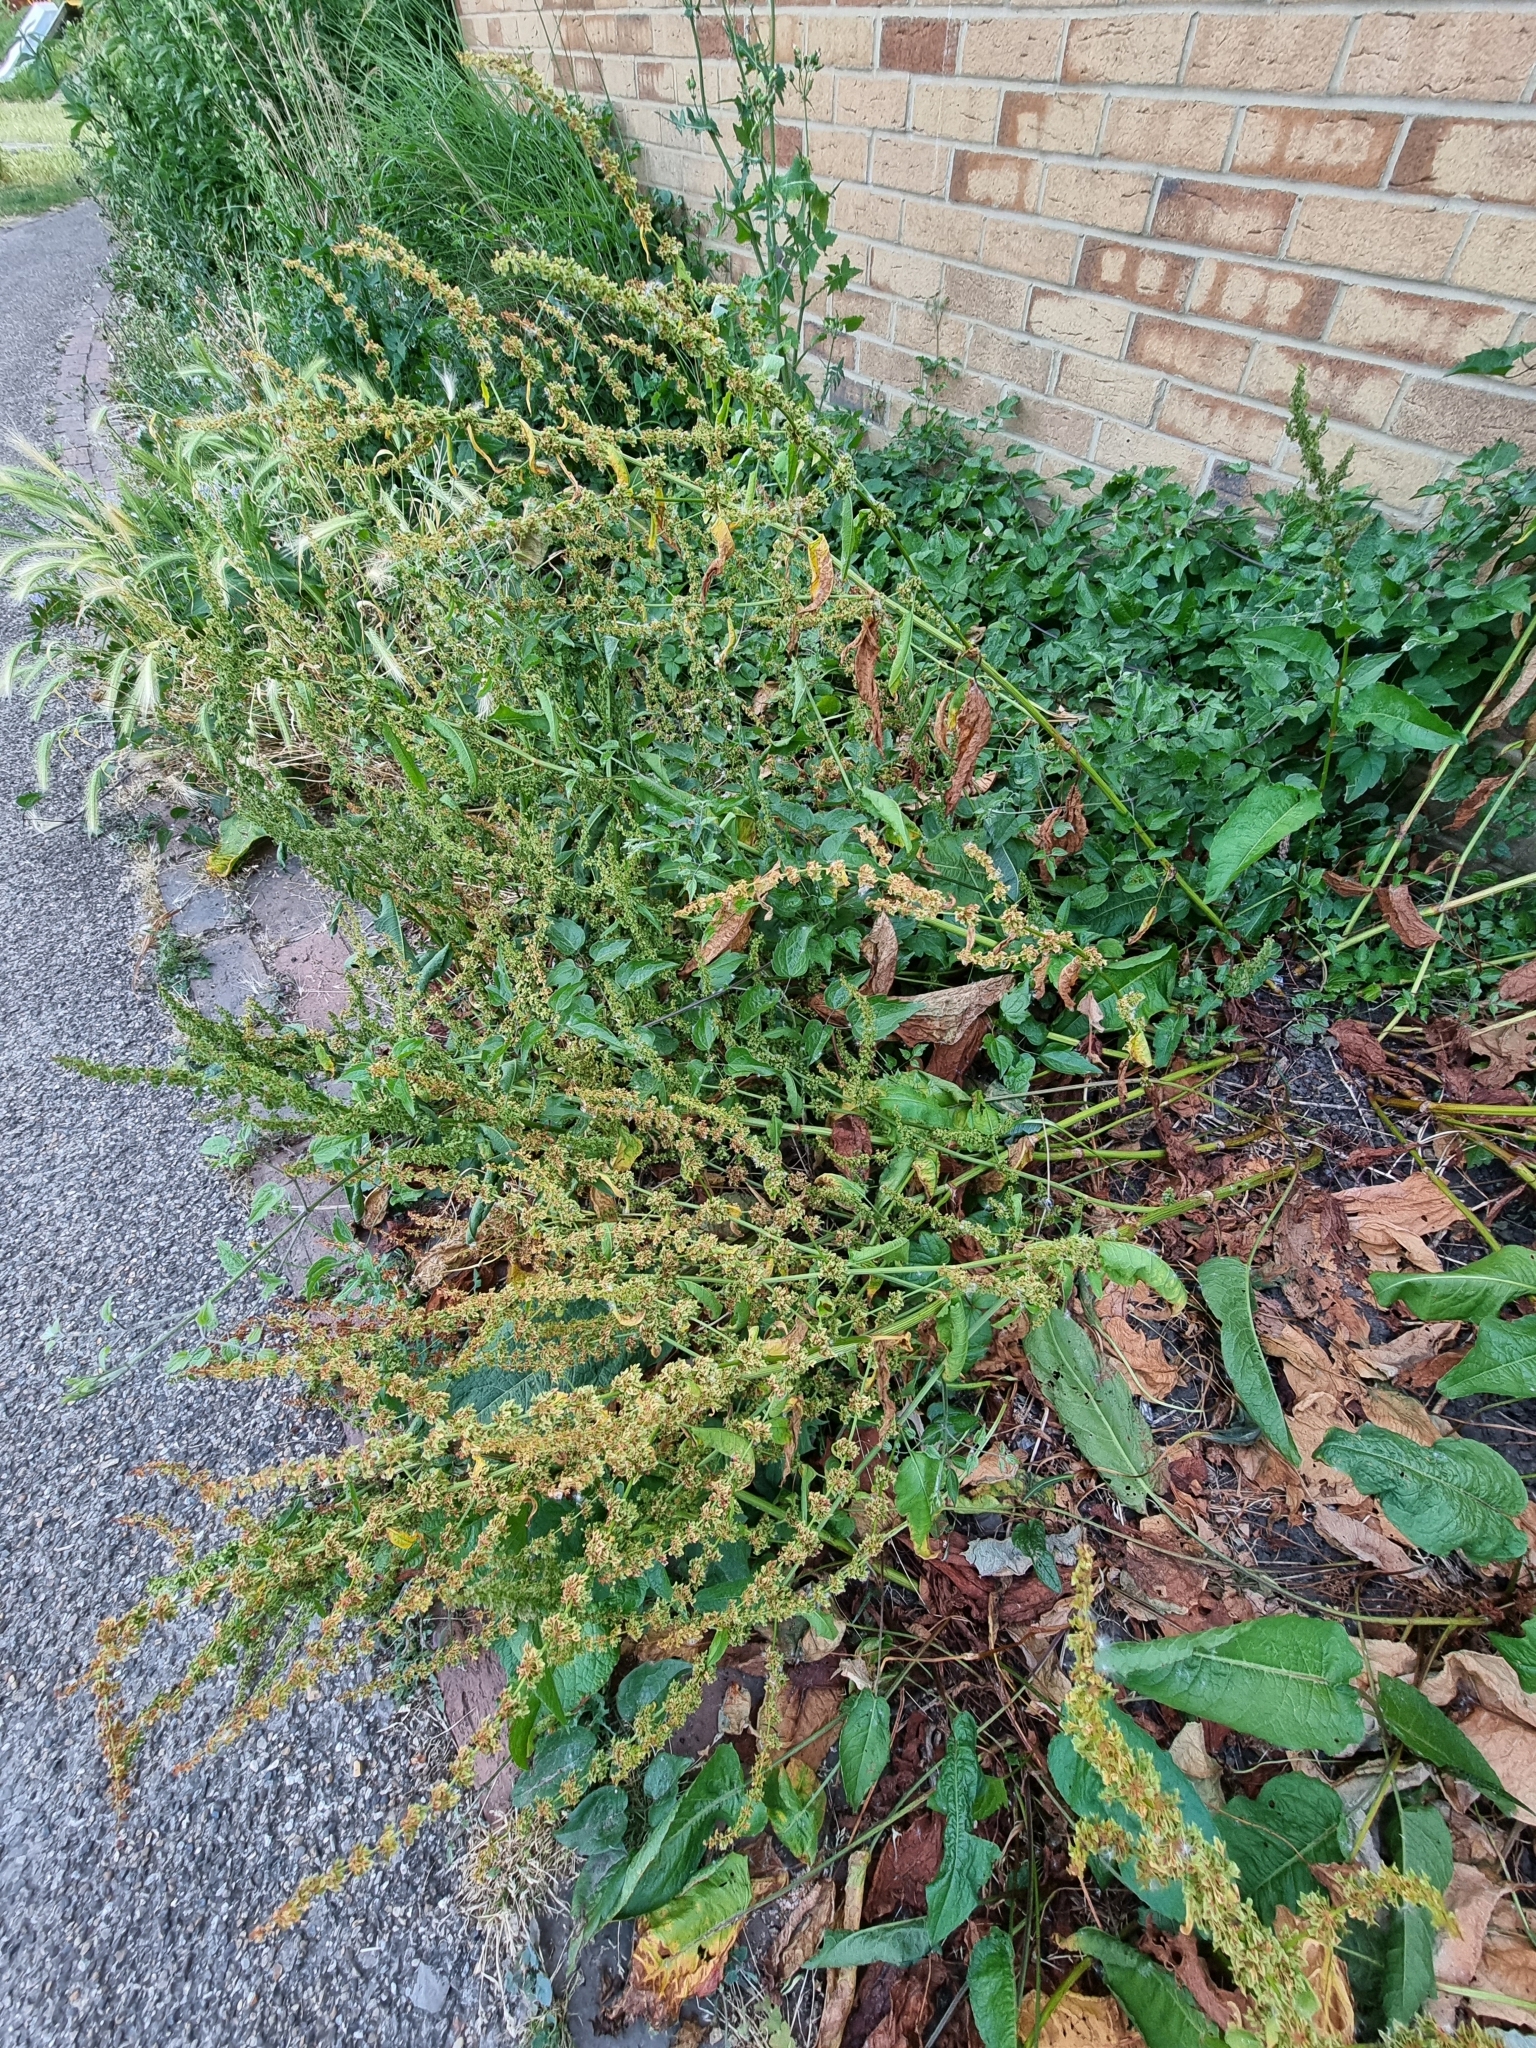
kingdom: Plantae
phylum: Tracheophyta
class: Magnoliopsida
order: Caryophyllales
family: Polygonaceae
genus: Rumex
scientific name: Rumex obtusifolius
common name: Bitter dock
